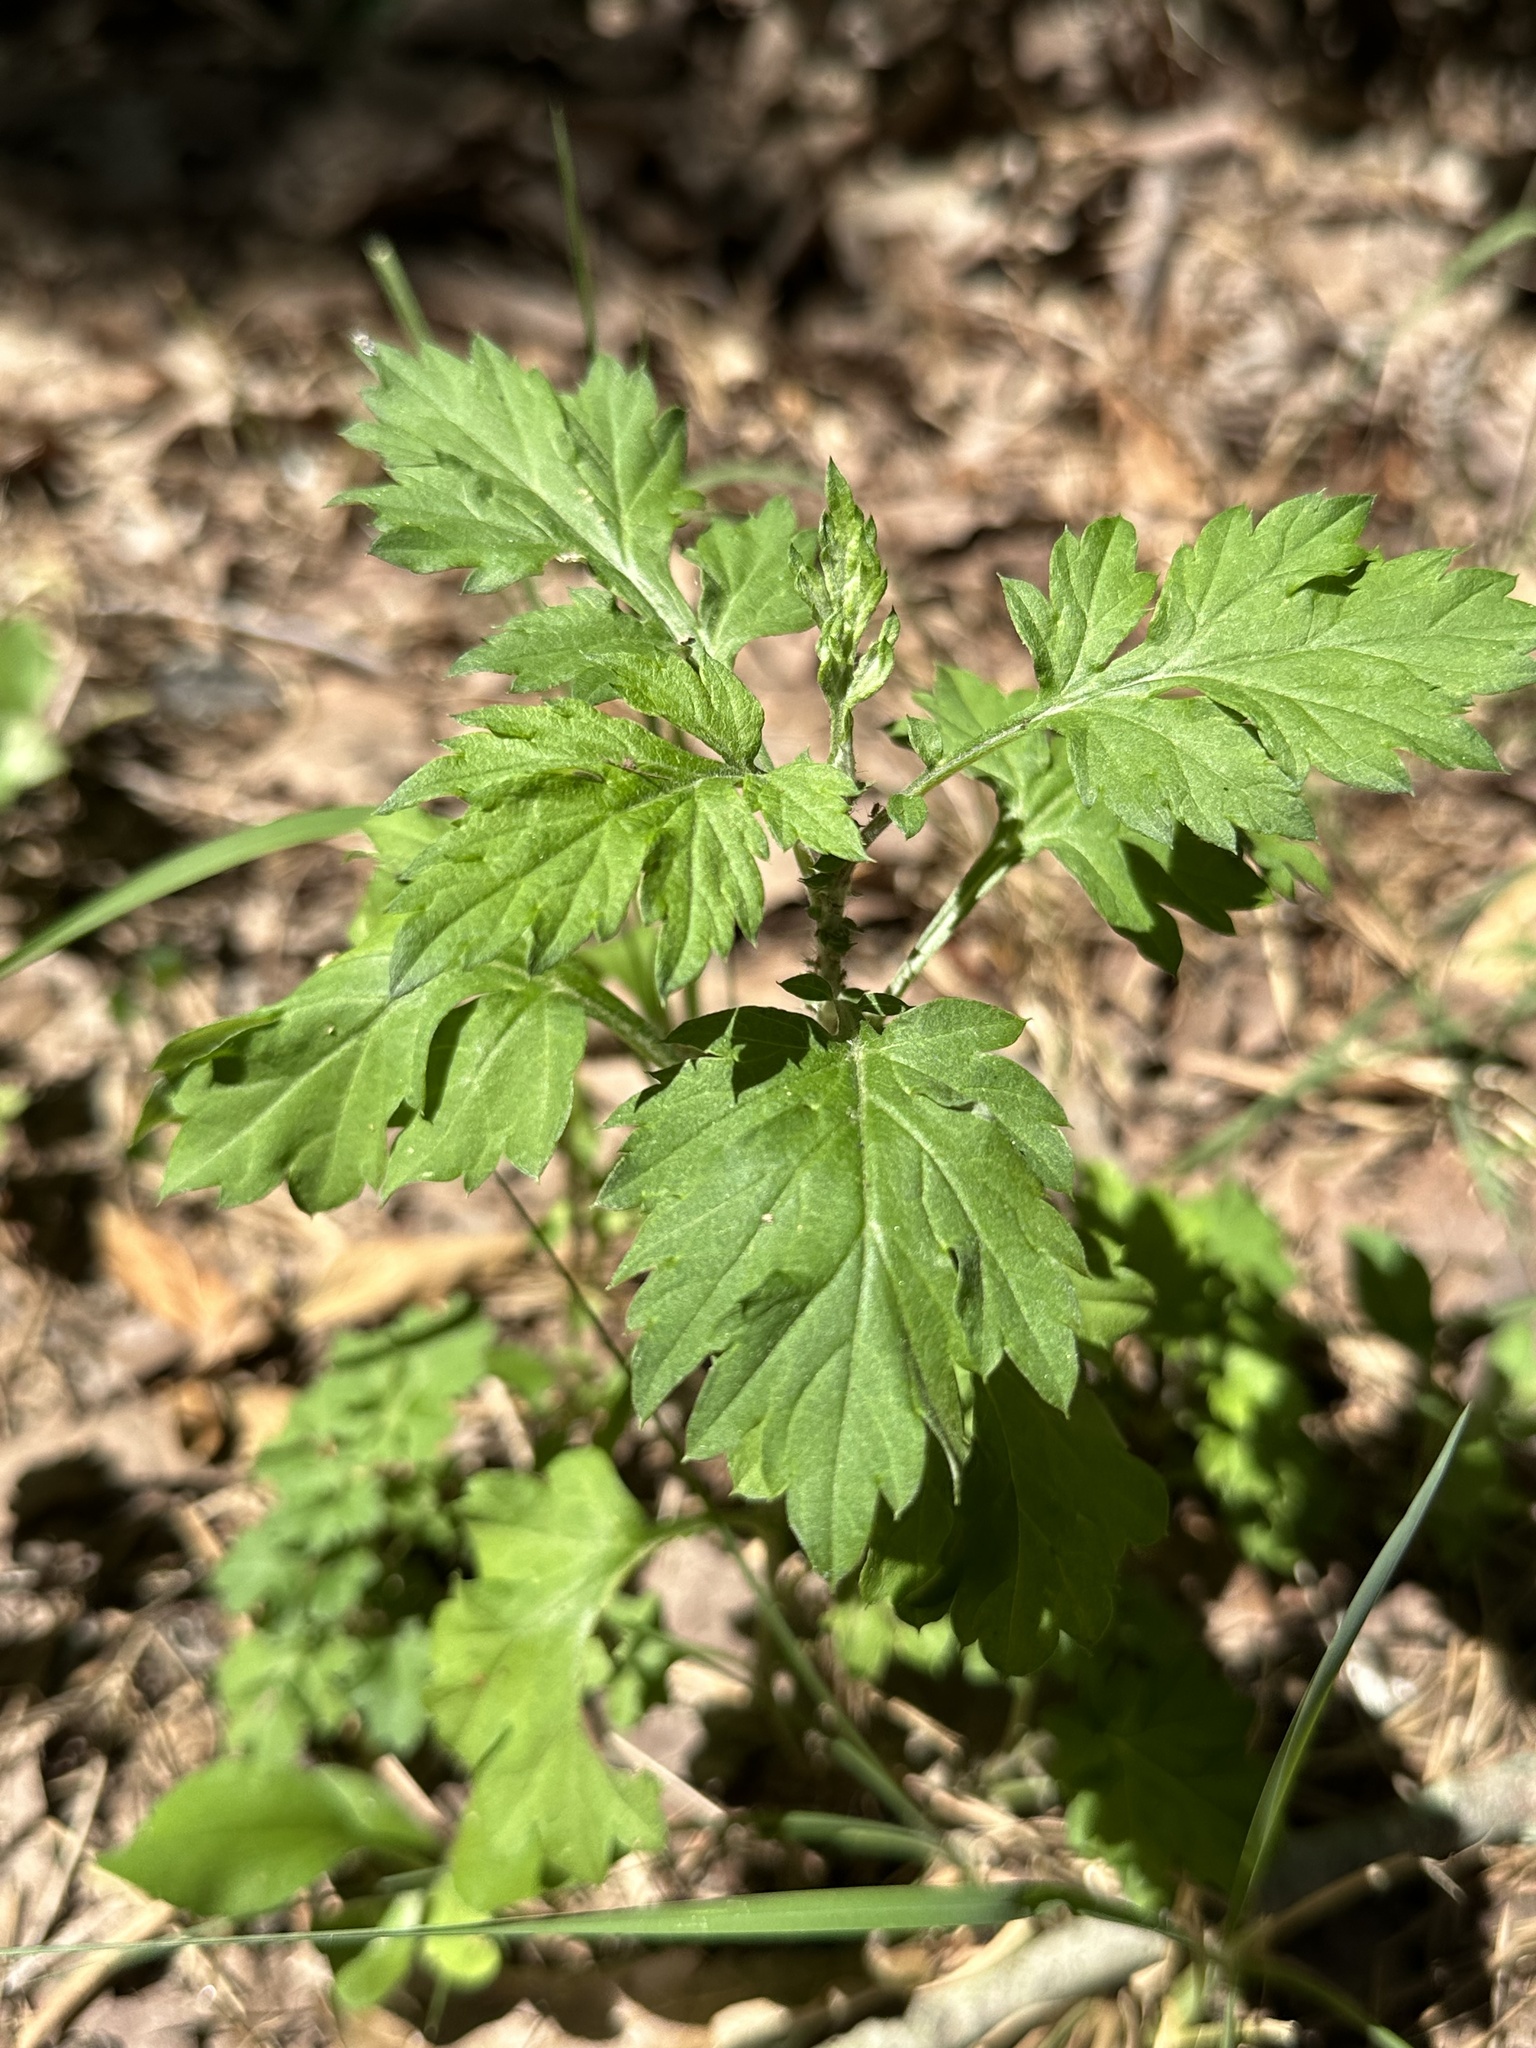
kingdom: Plantae
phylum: Tracheophyta
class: Magnoliopsida
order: Asterales
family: Asteraceae
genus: Artemisia
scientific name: Artemisia vulgaris
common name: Mugwort
